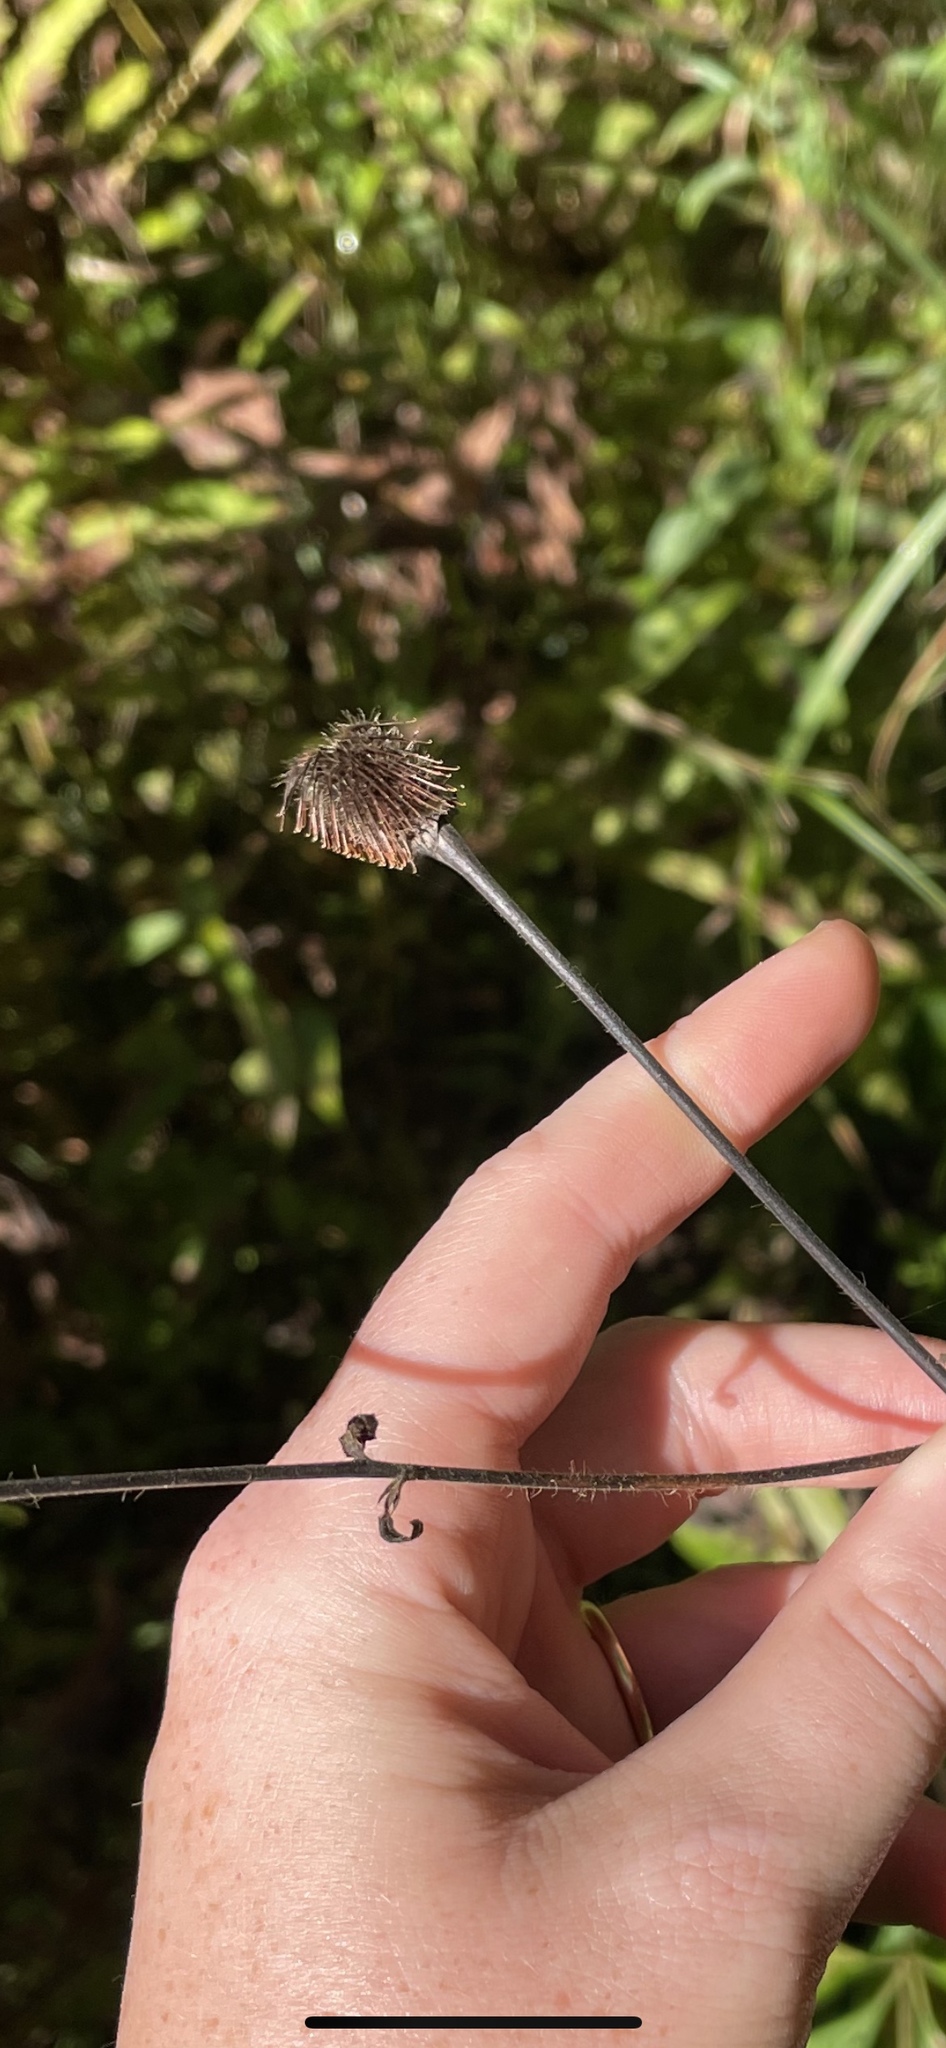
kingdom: Plantae
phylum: Tracheophyta
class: Magnoliopsida
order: Rosales
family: Rosaceae
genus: Geum
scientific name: Geum aleppicum
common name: Yellow avens
